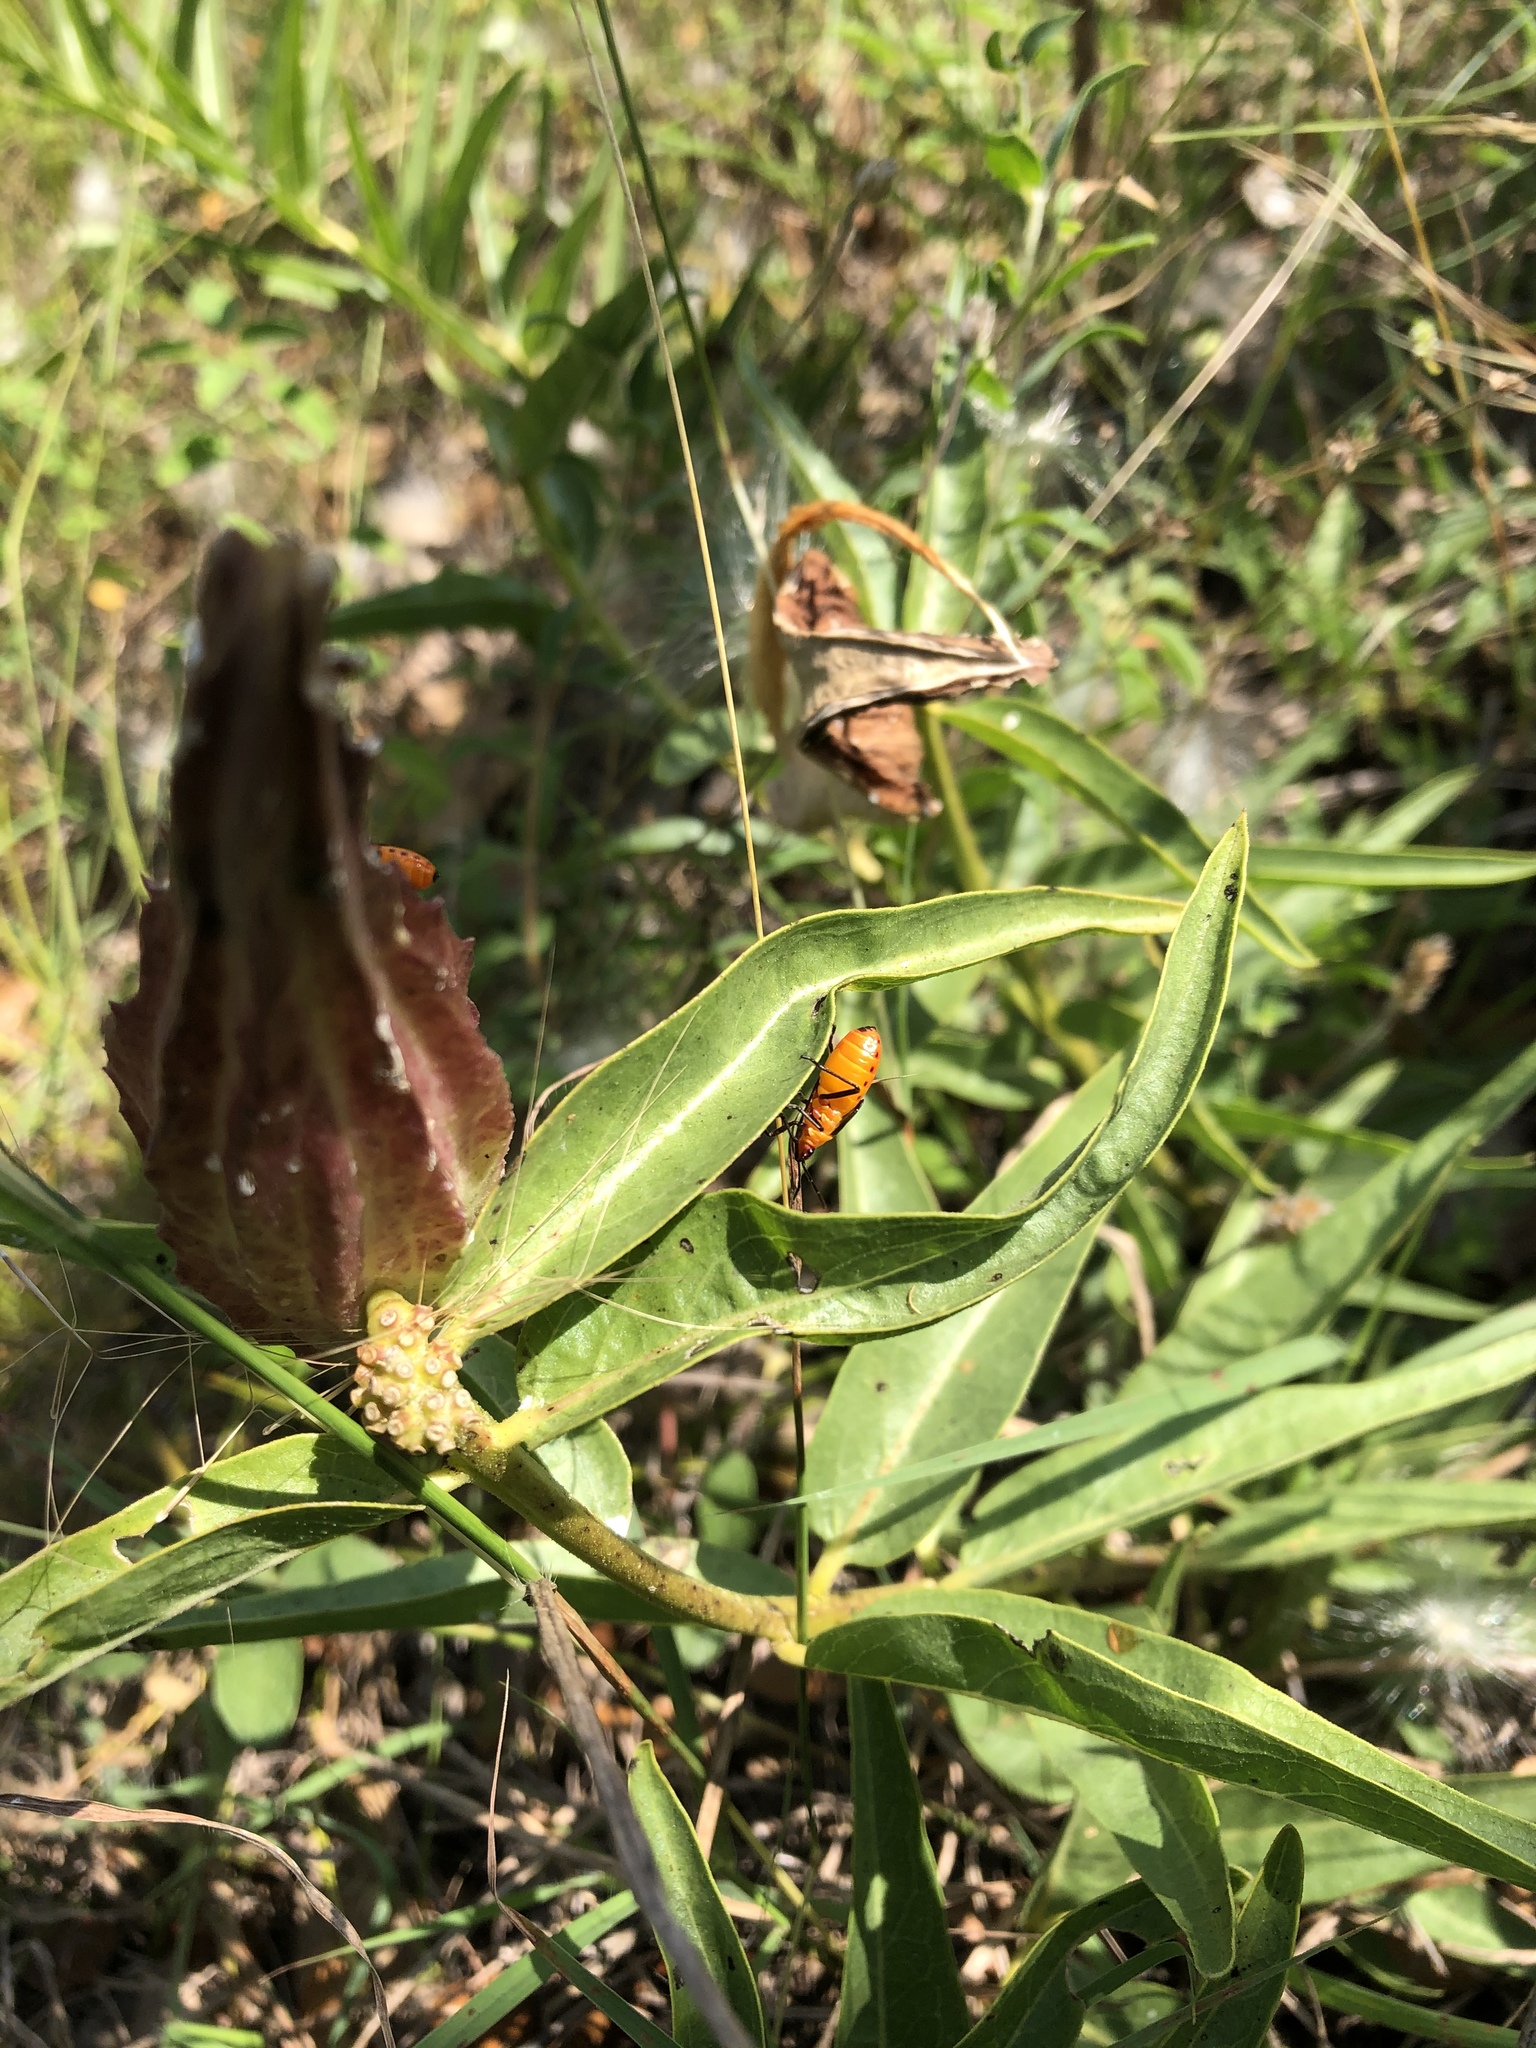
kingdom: Plantae
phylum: Tracheophyta
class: Magnoliopsida
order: Gentianales
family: Apocynaceae
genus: Asclepias
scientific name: Asclepias asperula
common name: Antelope horns
